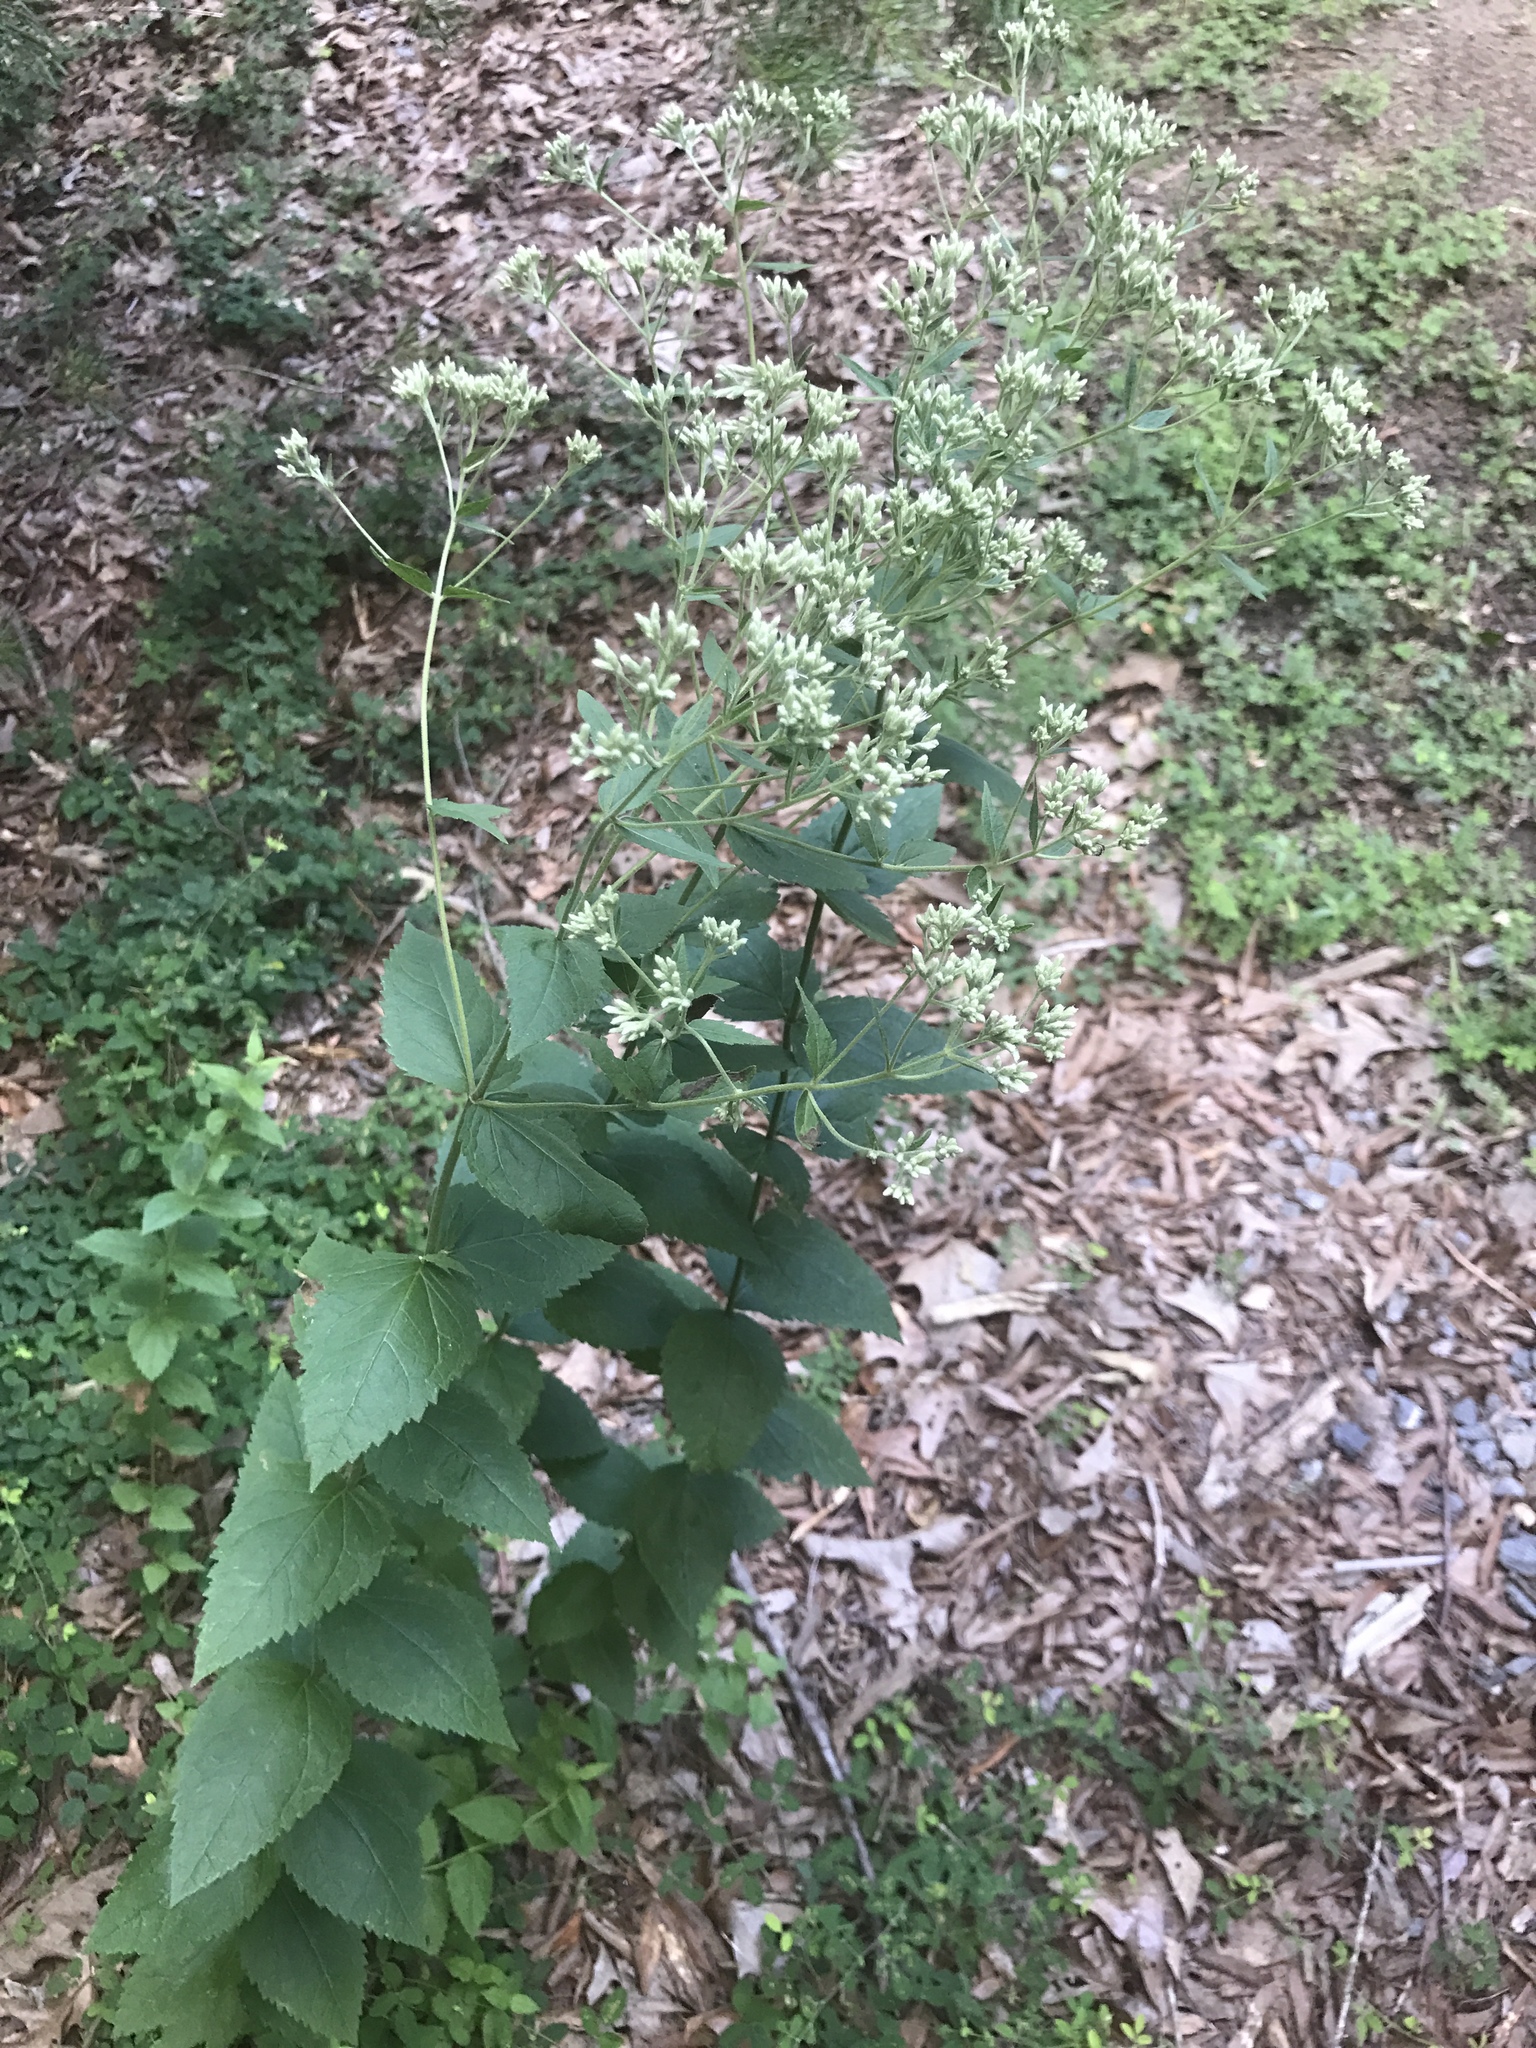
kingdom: Plantae
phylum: Tracheophyta
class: Magnoliopsida
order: Asterales
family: Asteraceae
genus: Ageratina
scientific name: Ageratina altissima
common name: White snakeroot
